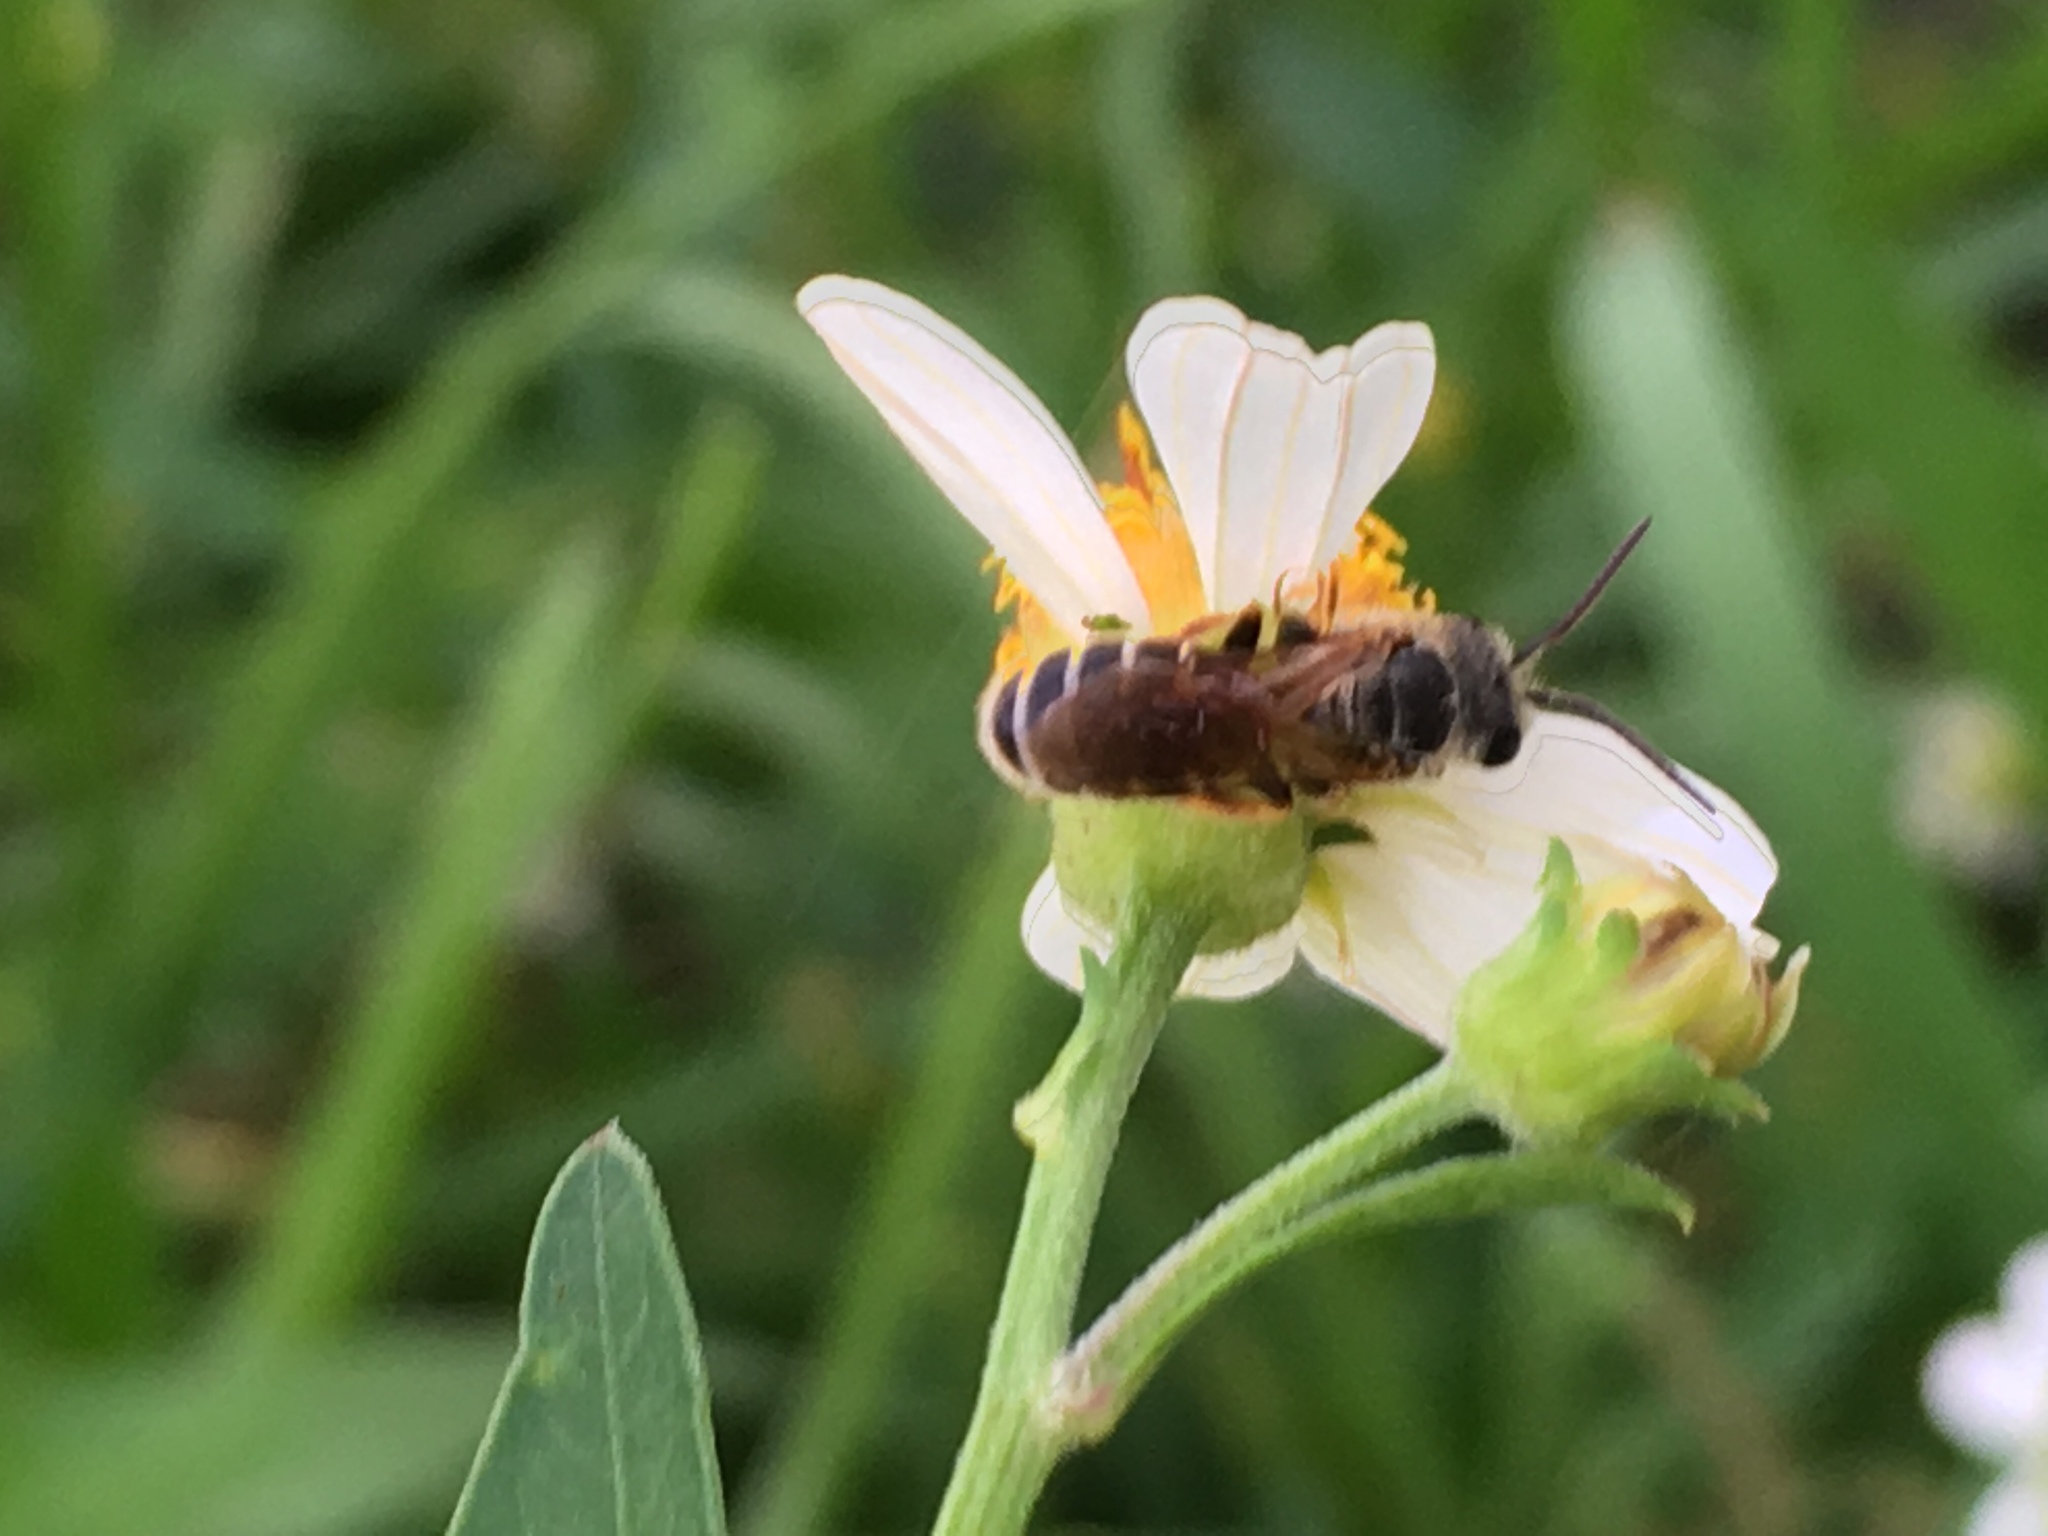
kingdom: Animalia
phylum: Arthropoda
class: Insecta
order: Hymenoptera
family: Halictidae
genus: Halictus
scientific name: Halictus poeyi
